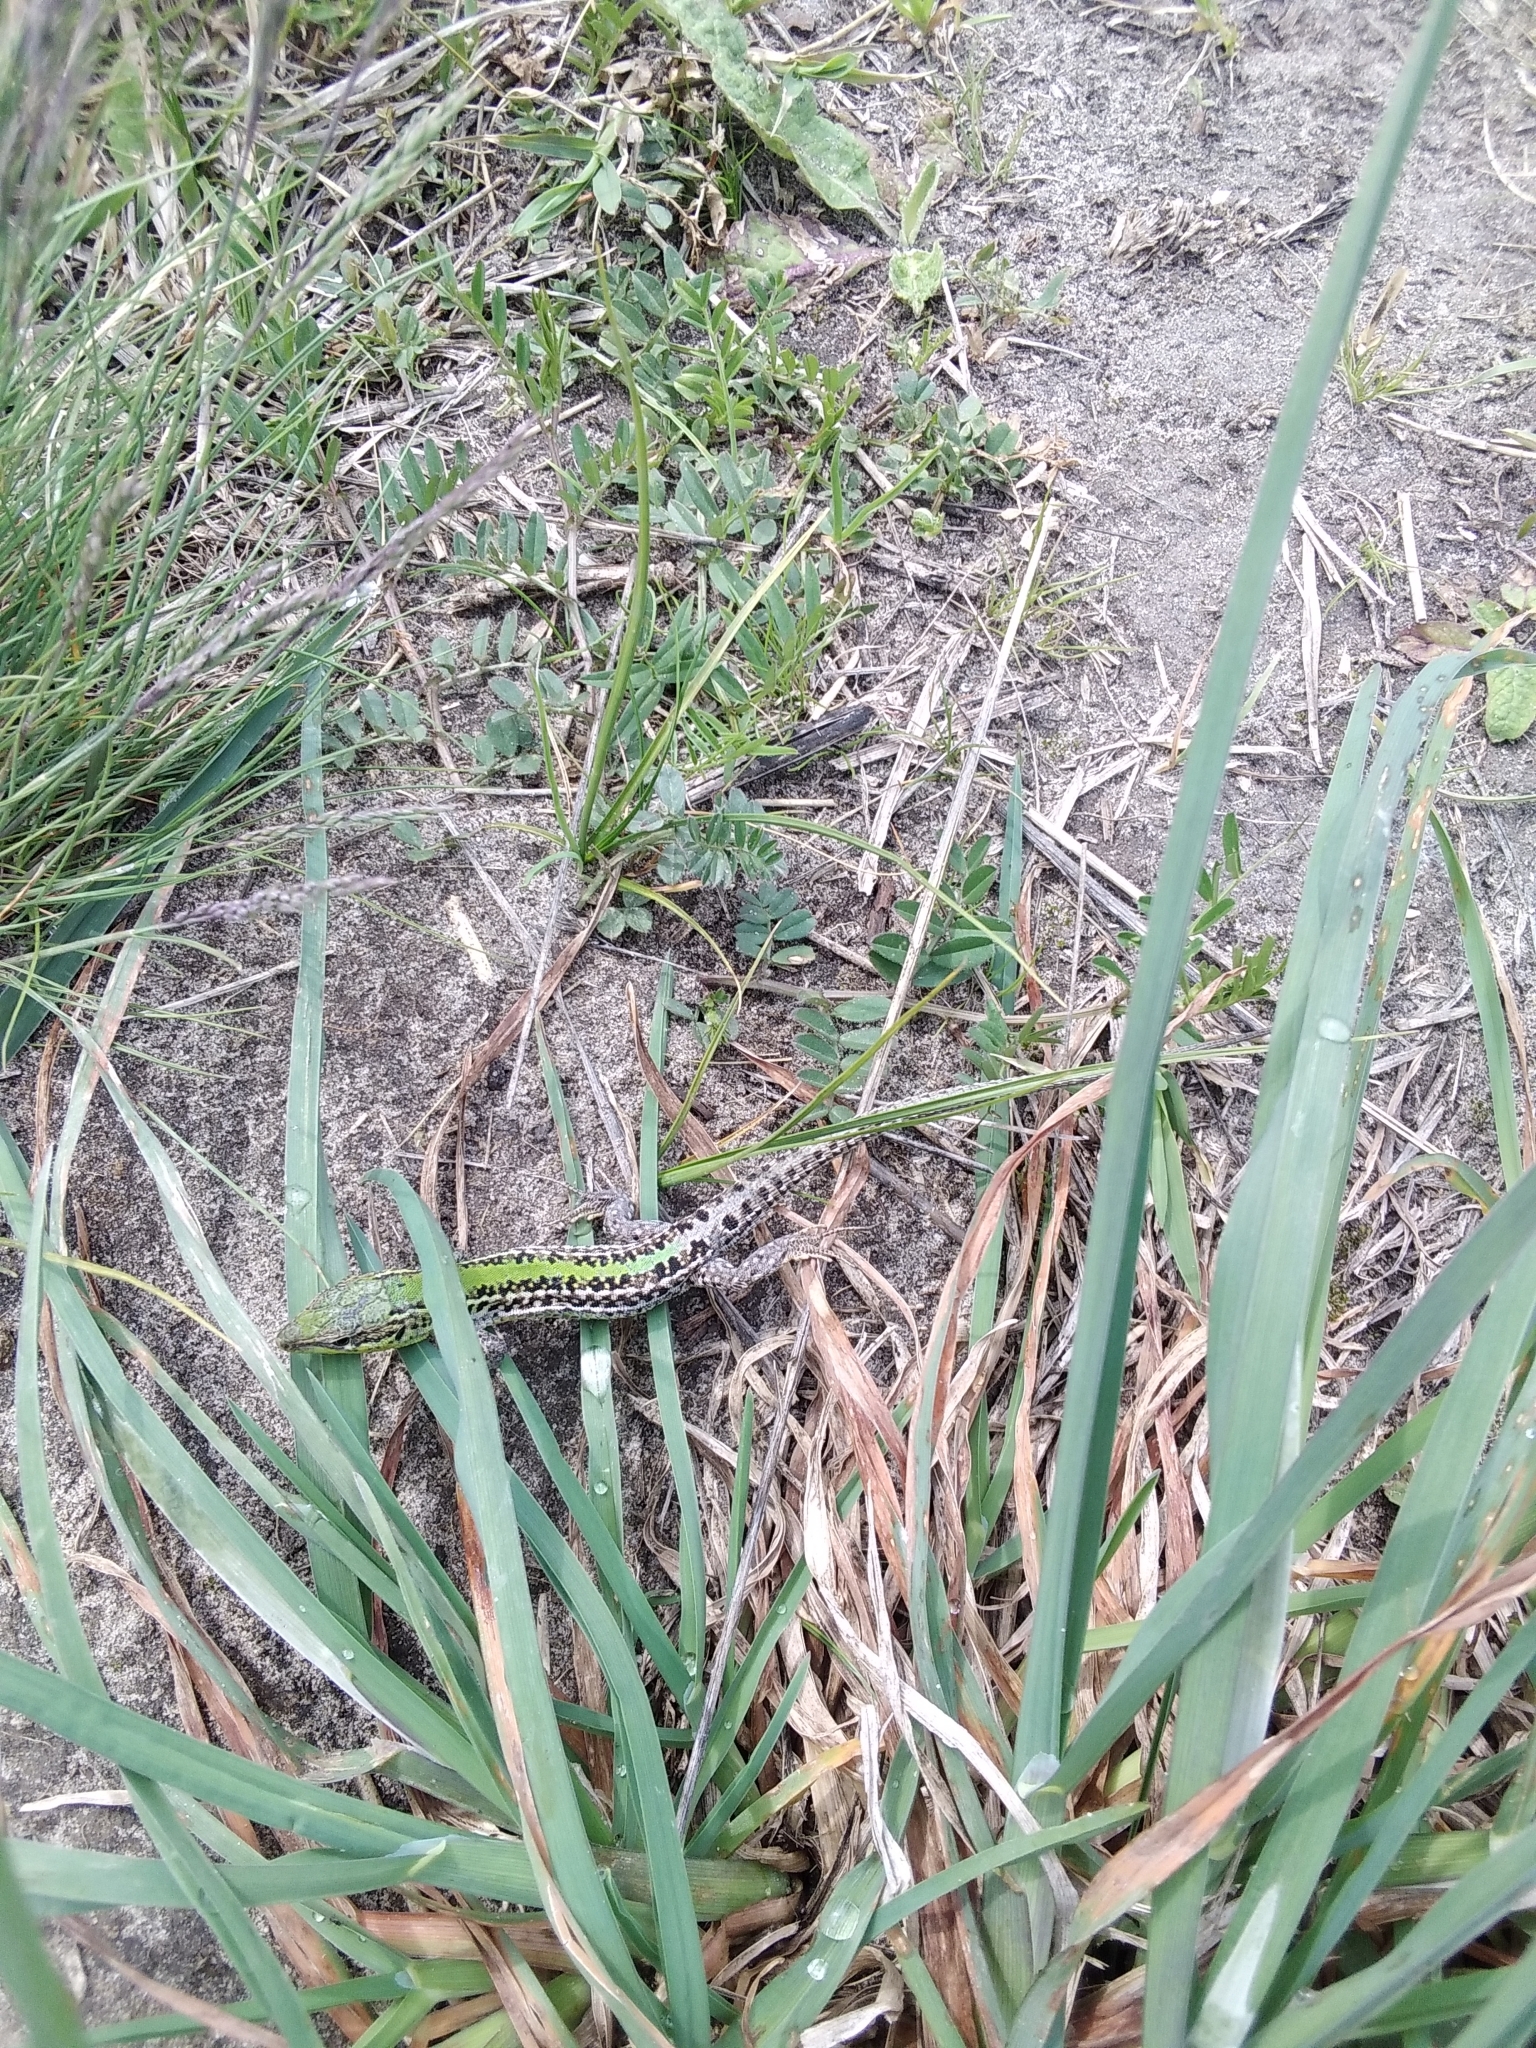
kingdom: Animalia
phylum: Chordata
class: Squamata
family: Lacertidae
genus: Podarcis
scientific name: Podarcis tauricus
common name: Balkan wall lizard
